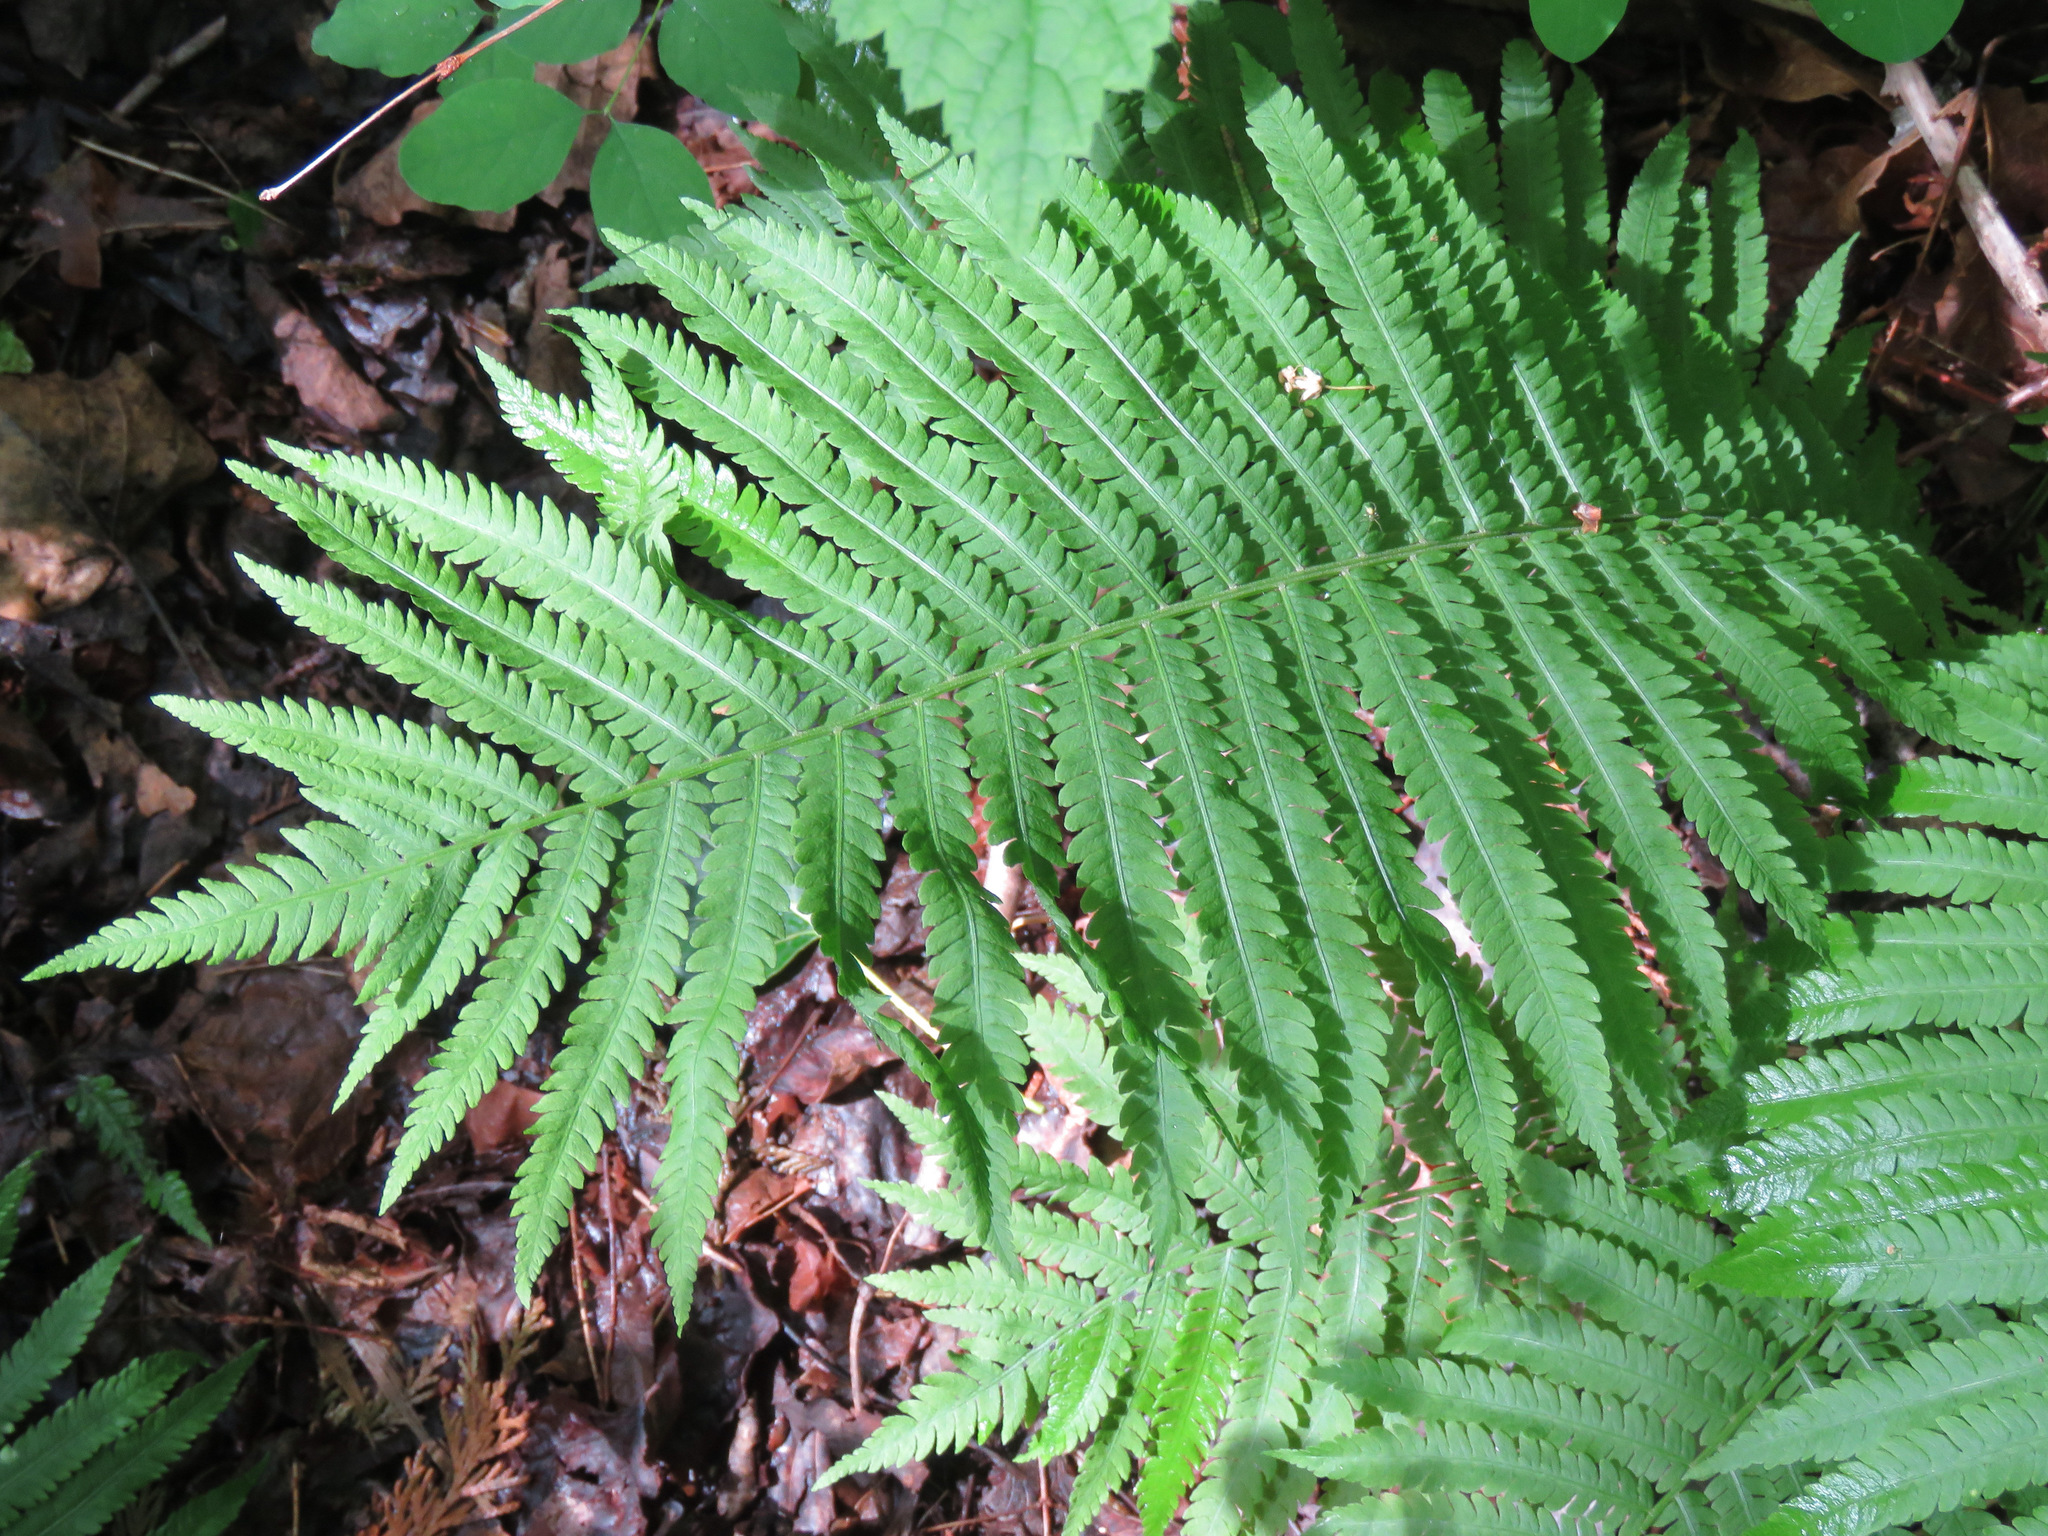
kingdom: Plantae
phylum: Tracheophyta
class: Polypodiopsida
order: Polypodiales
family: Onocleaceae
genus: Matteuccia
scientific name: Matteuccia struthiopteris
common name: Ostrich fern
